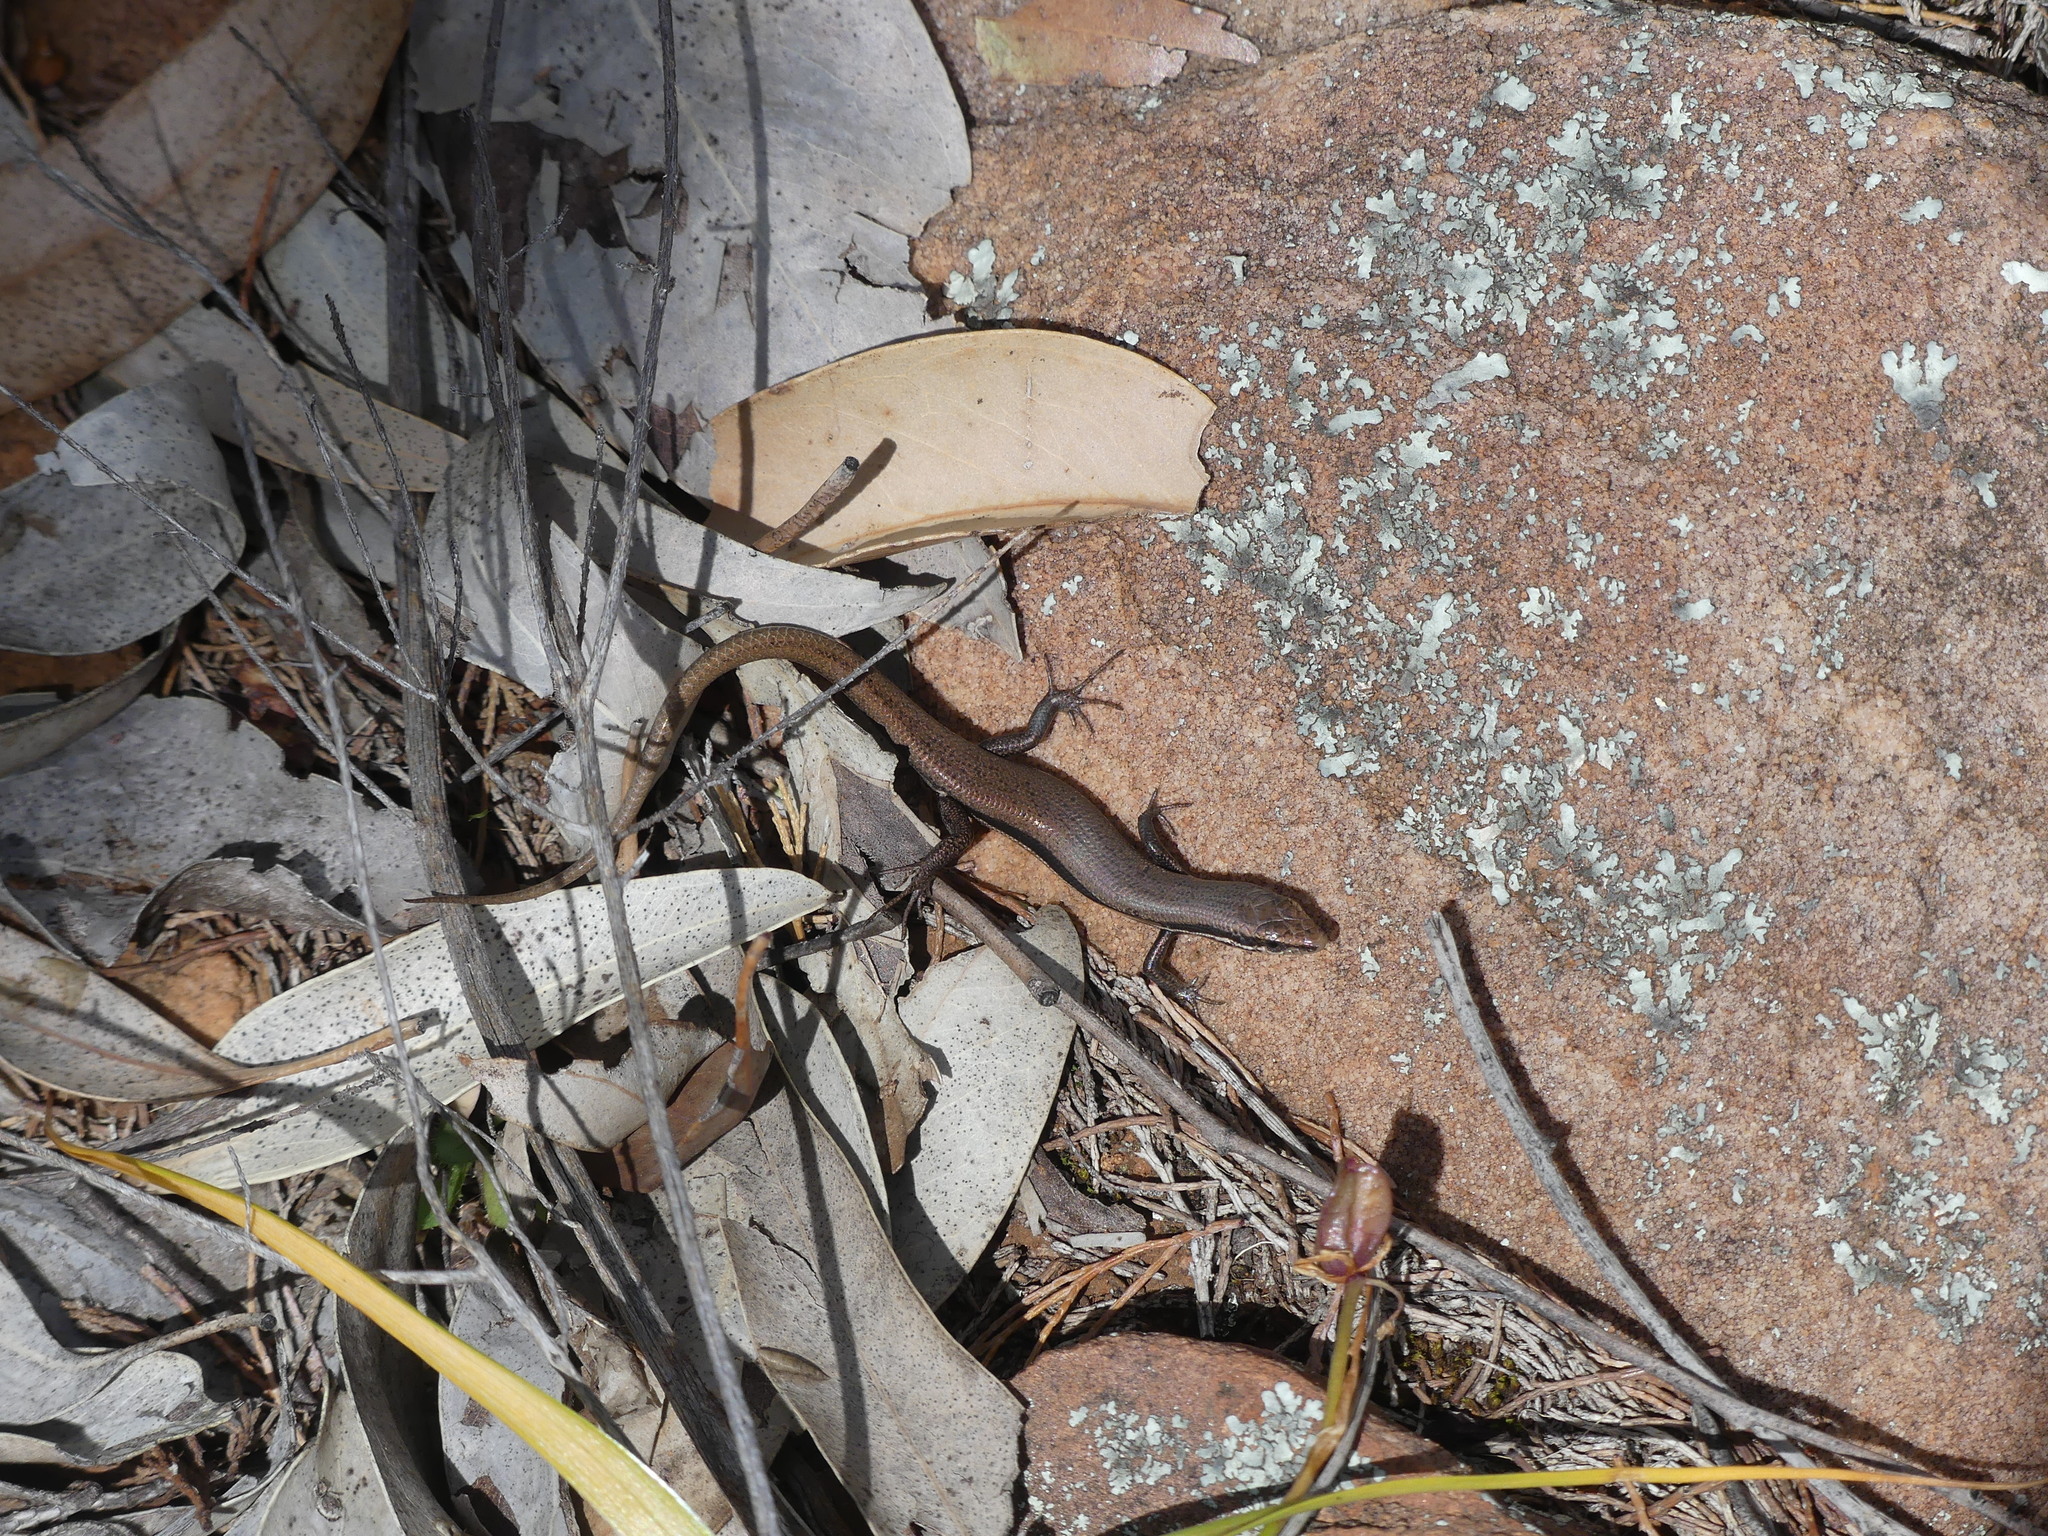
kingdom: Animalia
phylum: Chordata
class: Squamata
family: Scincidae
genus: Morethia
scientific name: Morethia boulengeri
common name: South-eastern morethia skink
